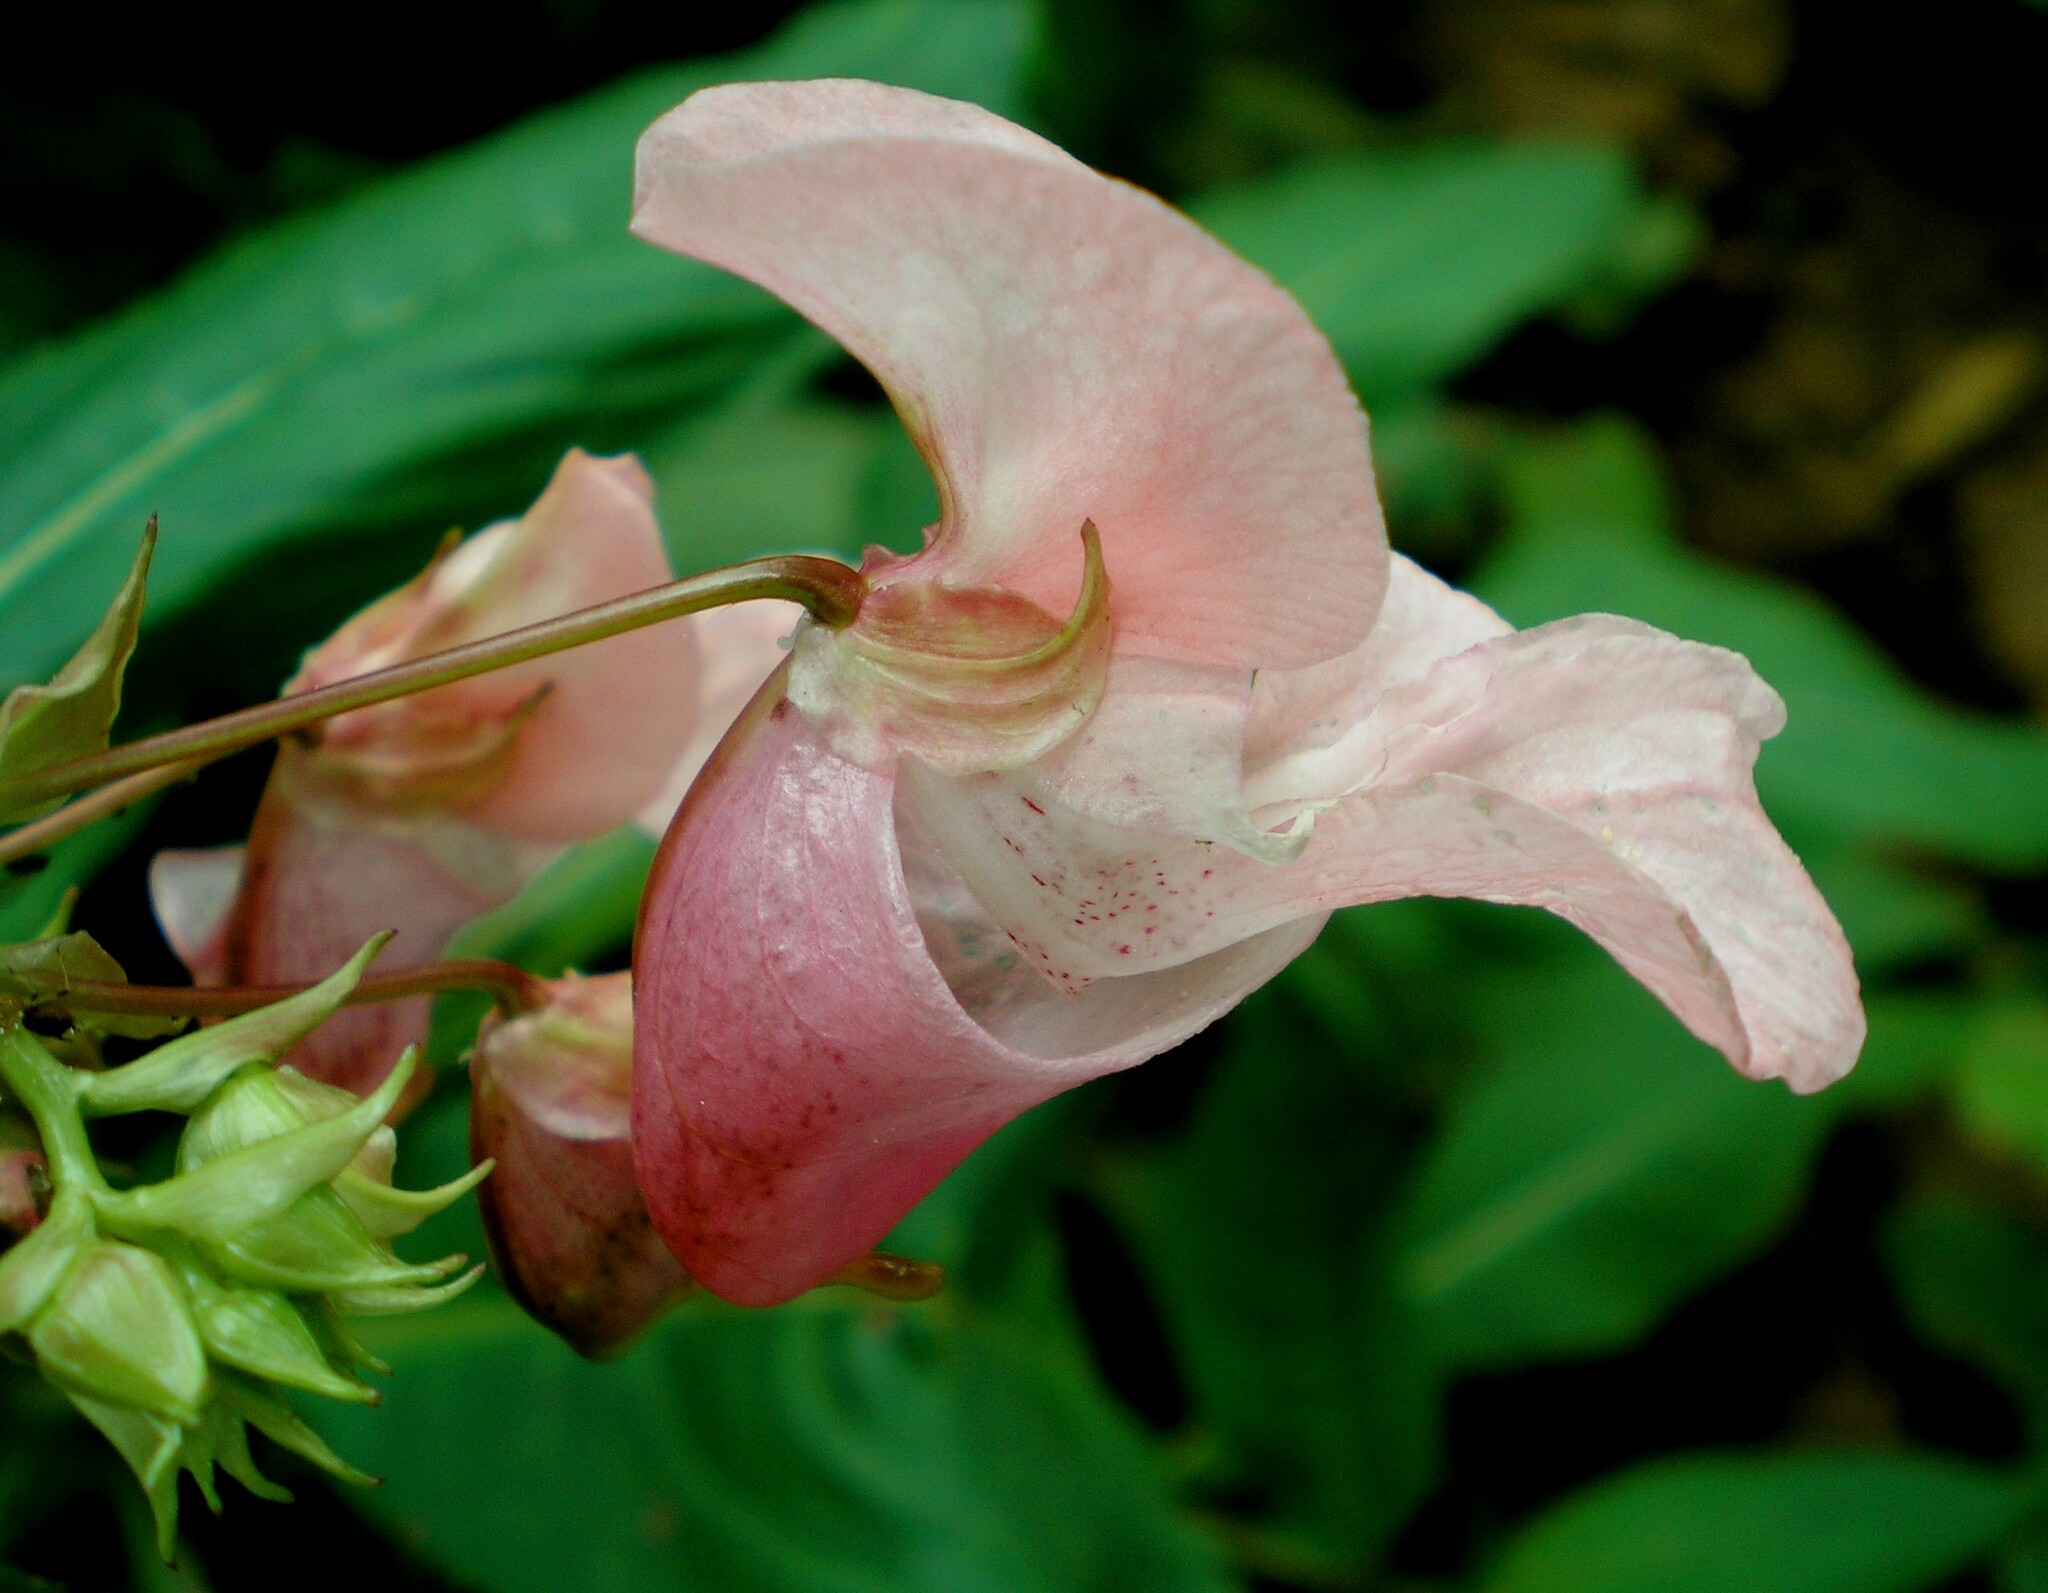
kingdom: Plantae
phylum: Tracheophyta
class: Magnoliopsida
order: Ericales
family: Balsaminaceae
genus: Impatiens
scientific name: Impatiens glandulifera
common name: Himalayan balsam
